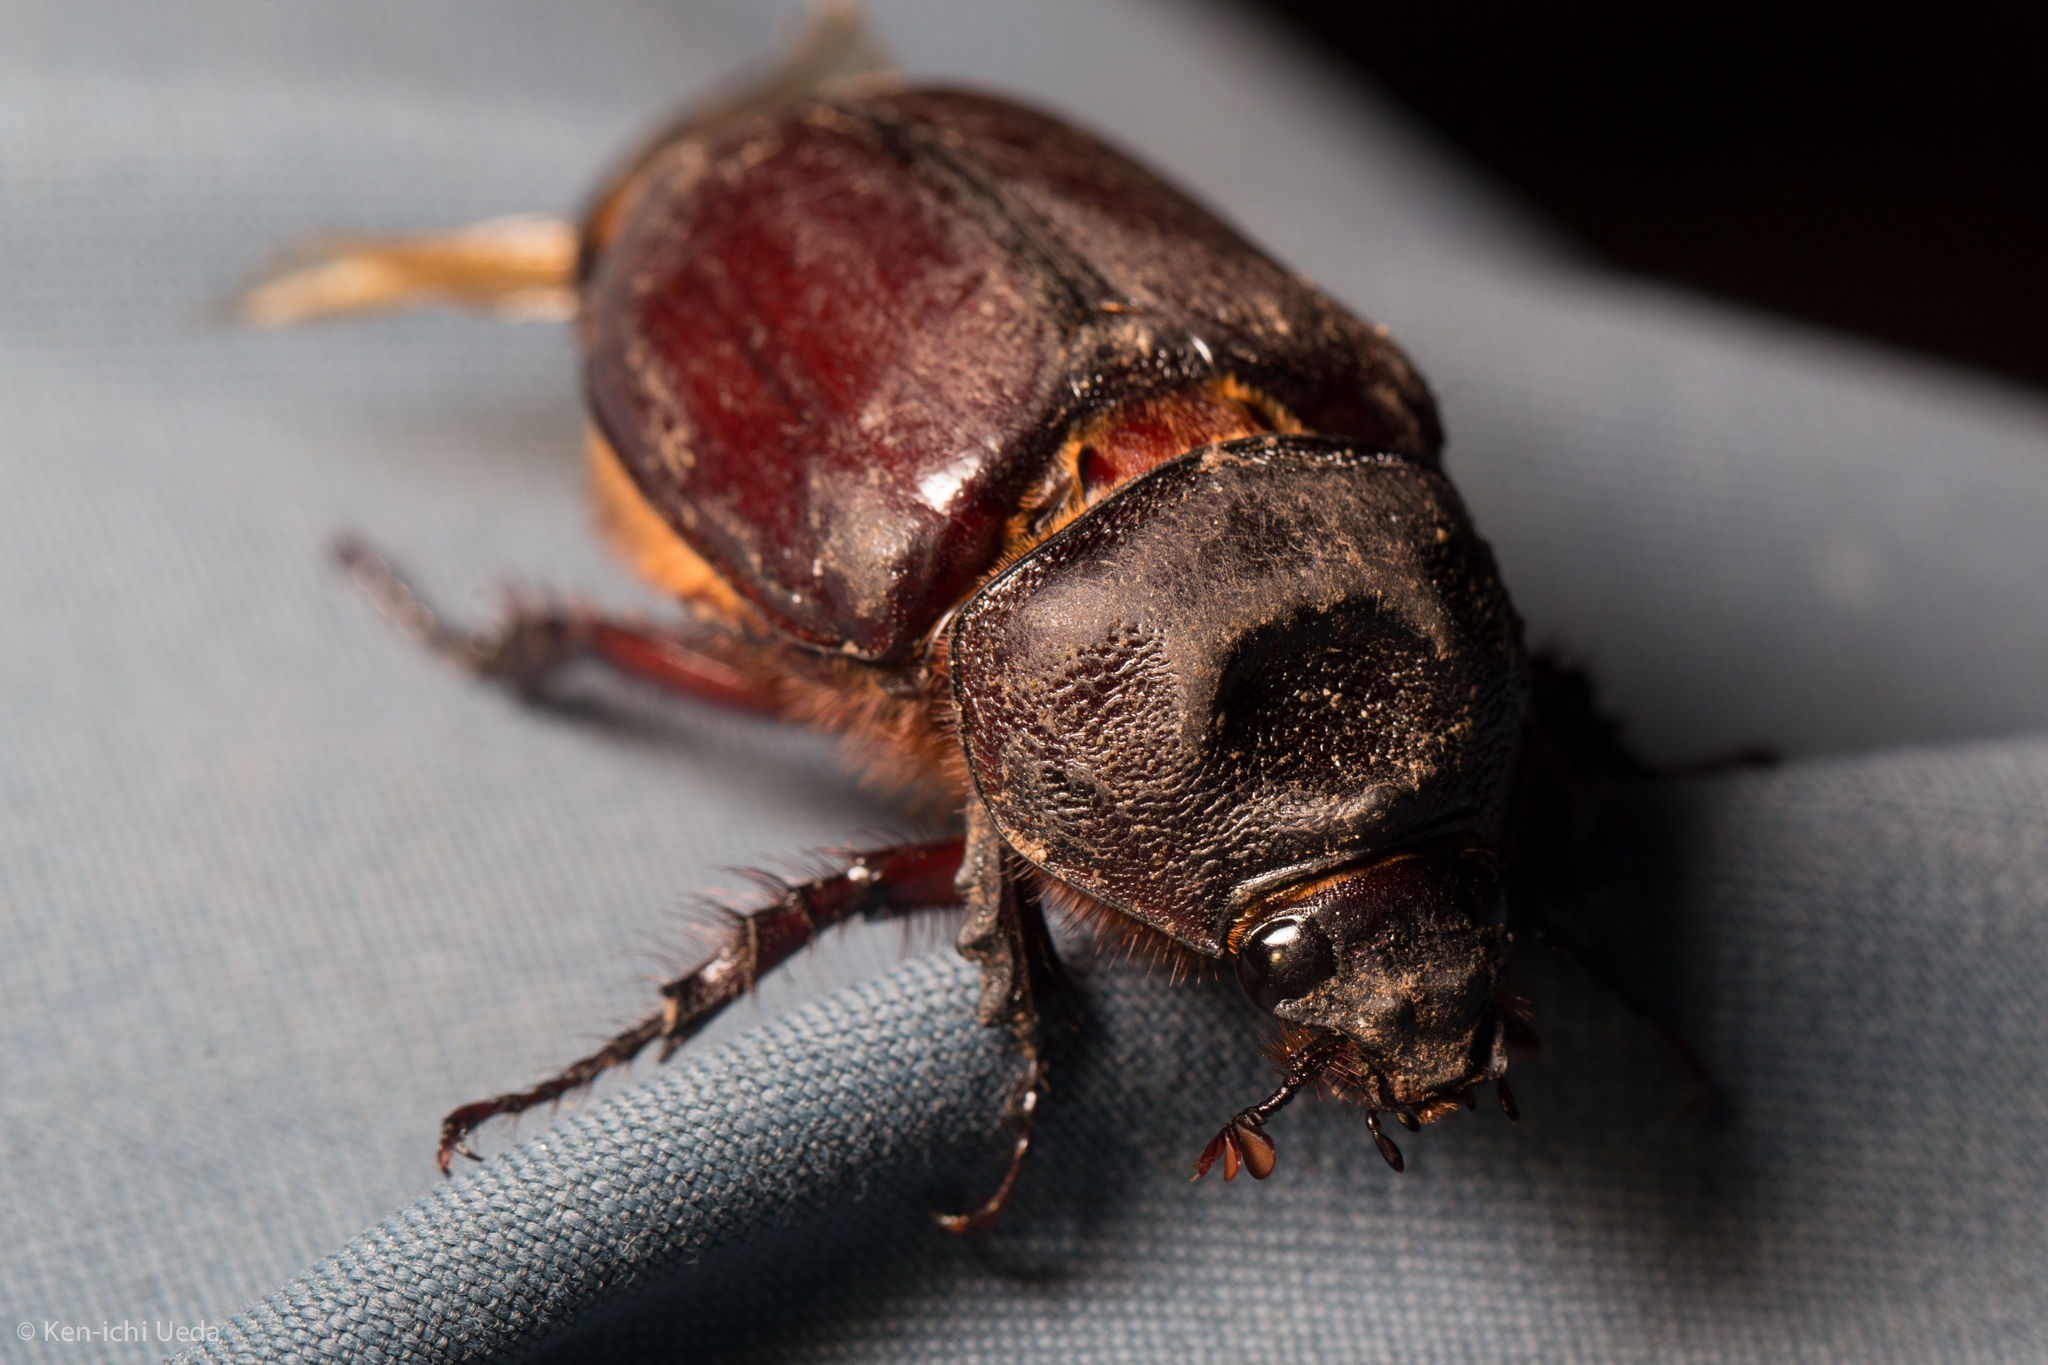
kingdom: Animalia
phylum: Arthropoda
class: Insecta
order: Coleoptera
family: Scarabaeidae
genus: Strategus
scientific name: Strategus aloeus
